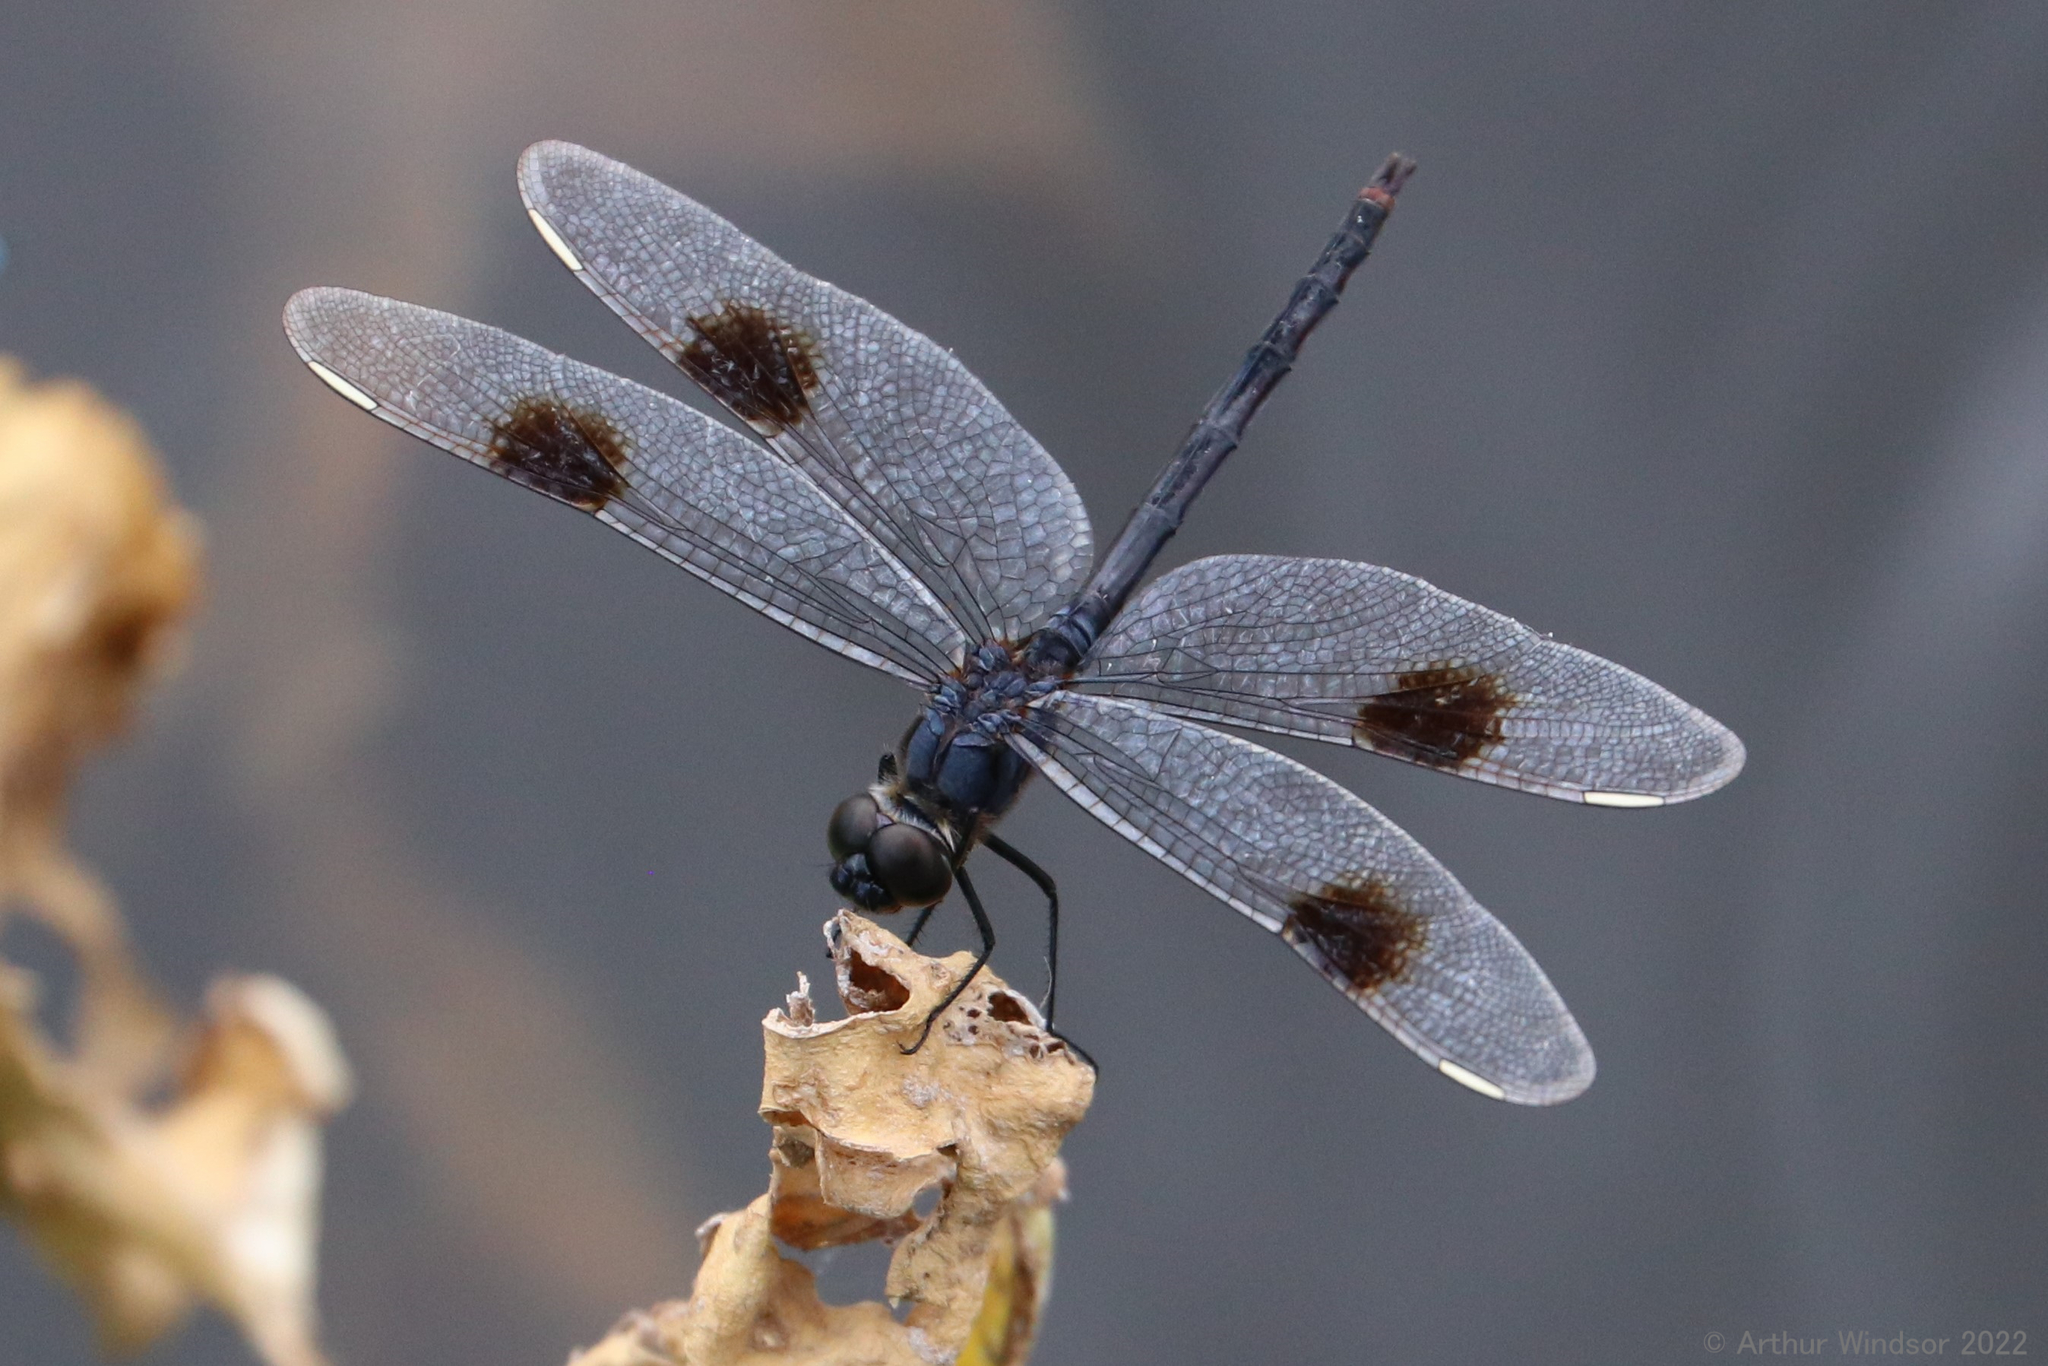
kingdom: Animalia
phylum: Arthropoda
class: Insecta
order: Odonata
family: Libellulidae
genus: Brachymesia
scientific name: Brachymesia gravida
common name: Four-spotted pennant
